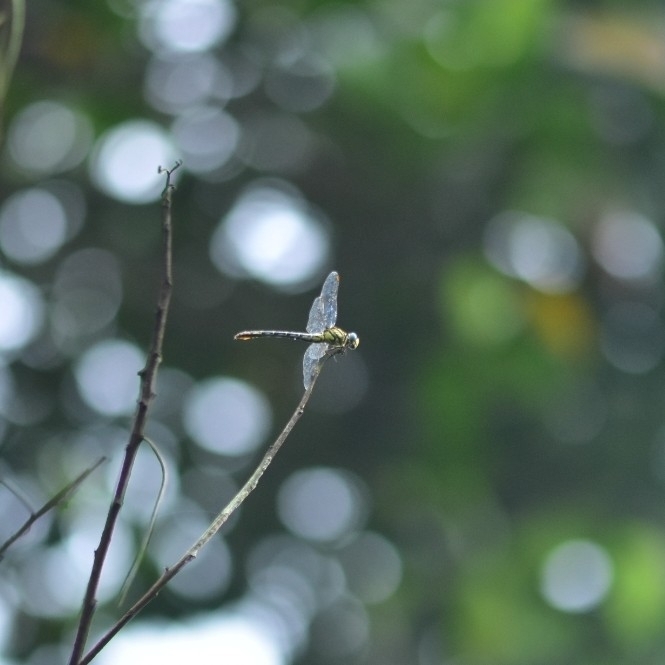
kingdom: Animalia
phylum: Arthropoda
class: Insecta
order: Odonata
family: Gomphidae
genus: Paragomphus
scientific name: Paragomphus lineatus
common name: Lined hooktail
